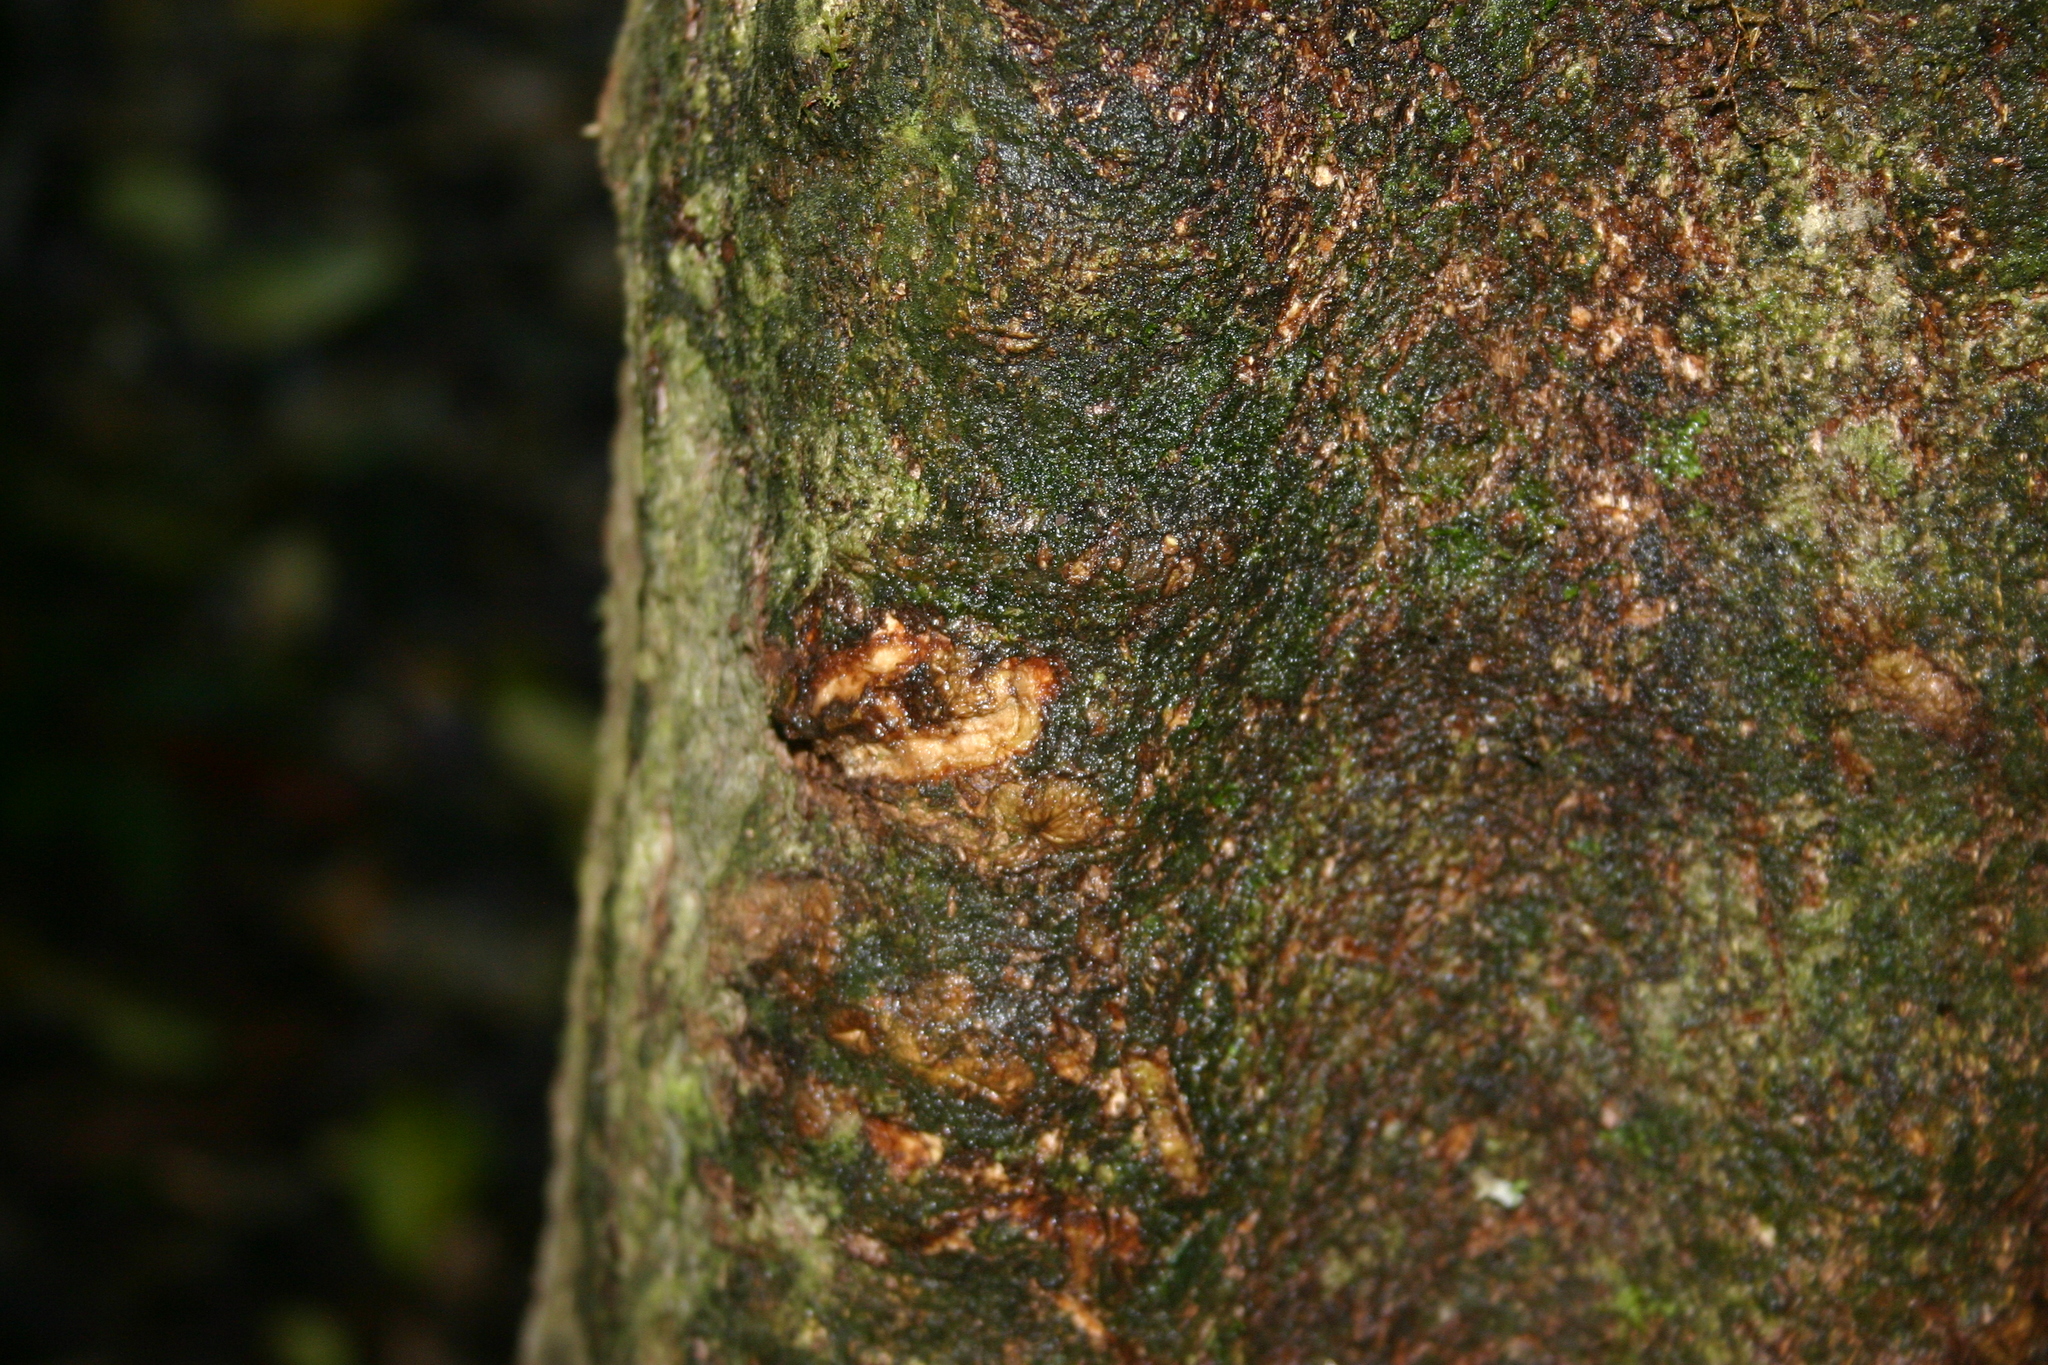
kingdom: Animalia
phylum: Chordata
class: Mammalia
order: Diprotodontia
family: Phalangeridae
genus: Trichosurus
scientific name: Trichosurus vulpecula
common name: Common brushtail
